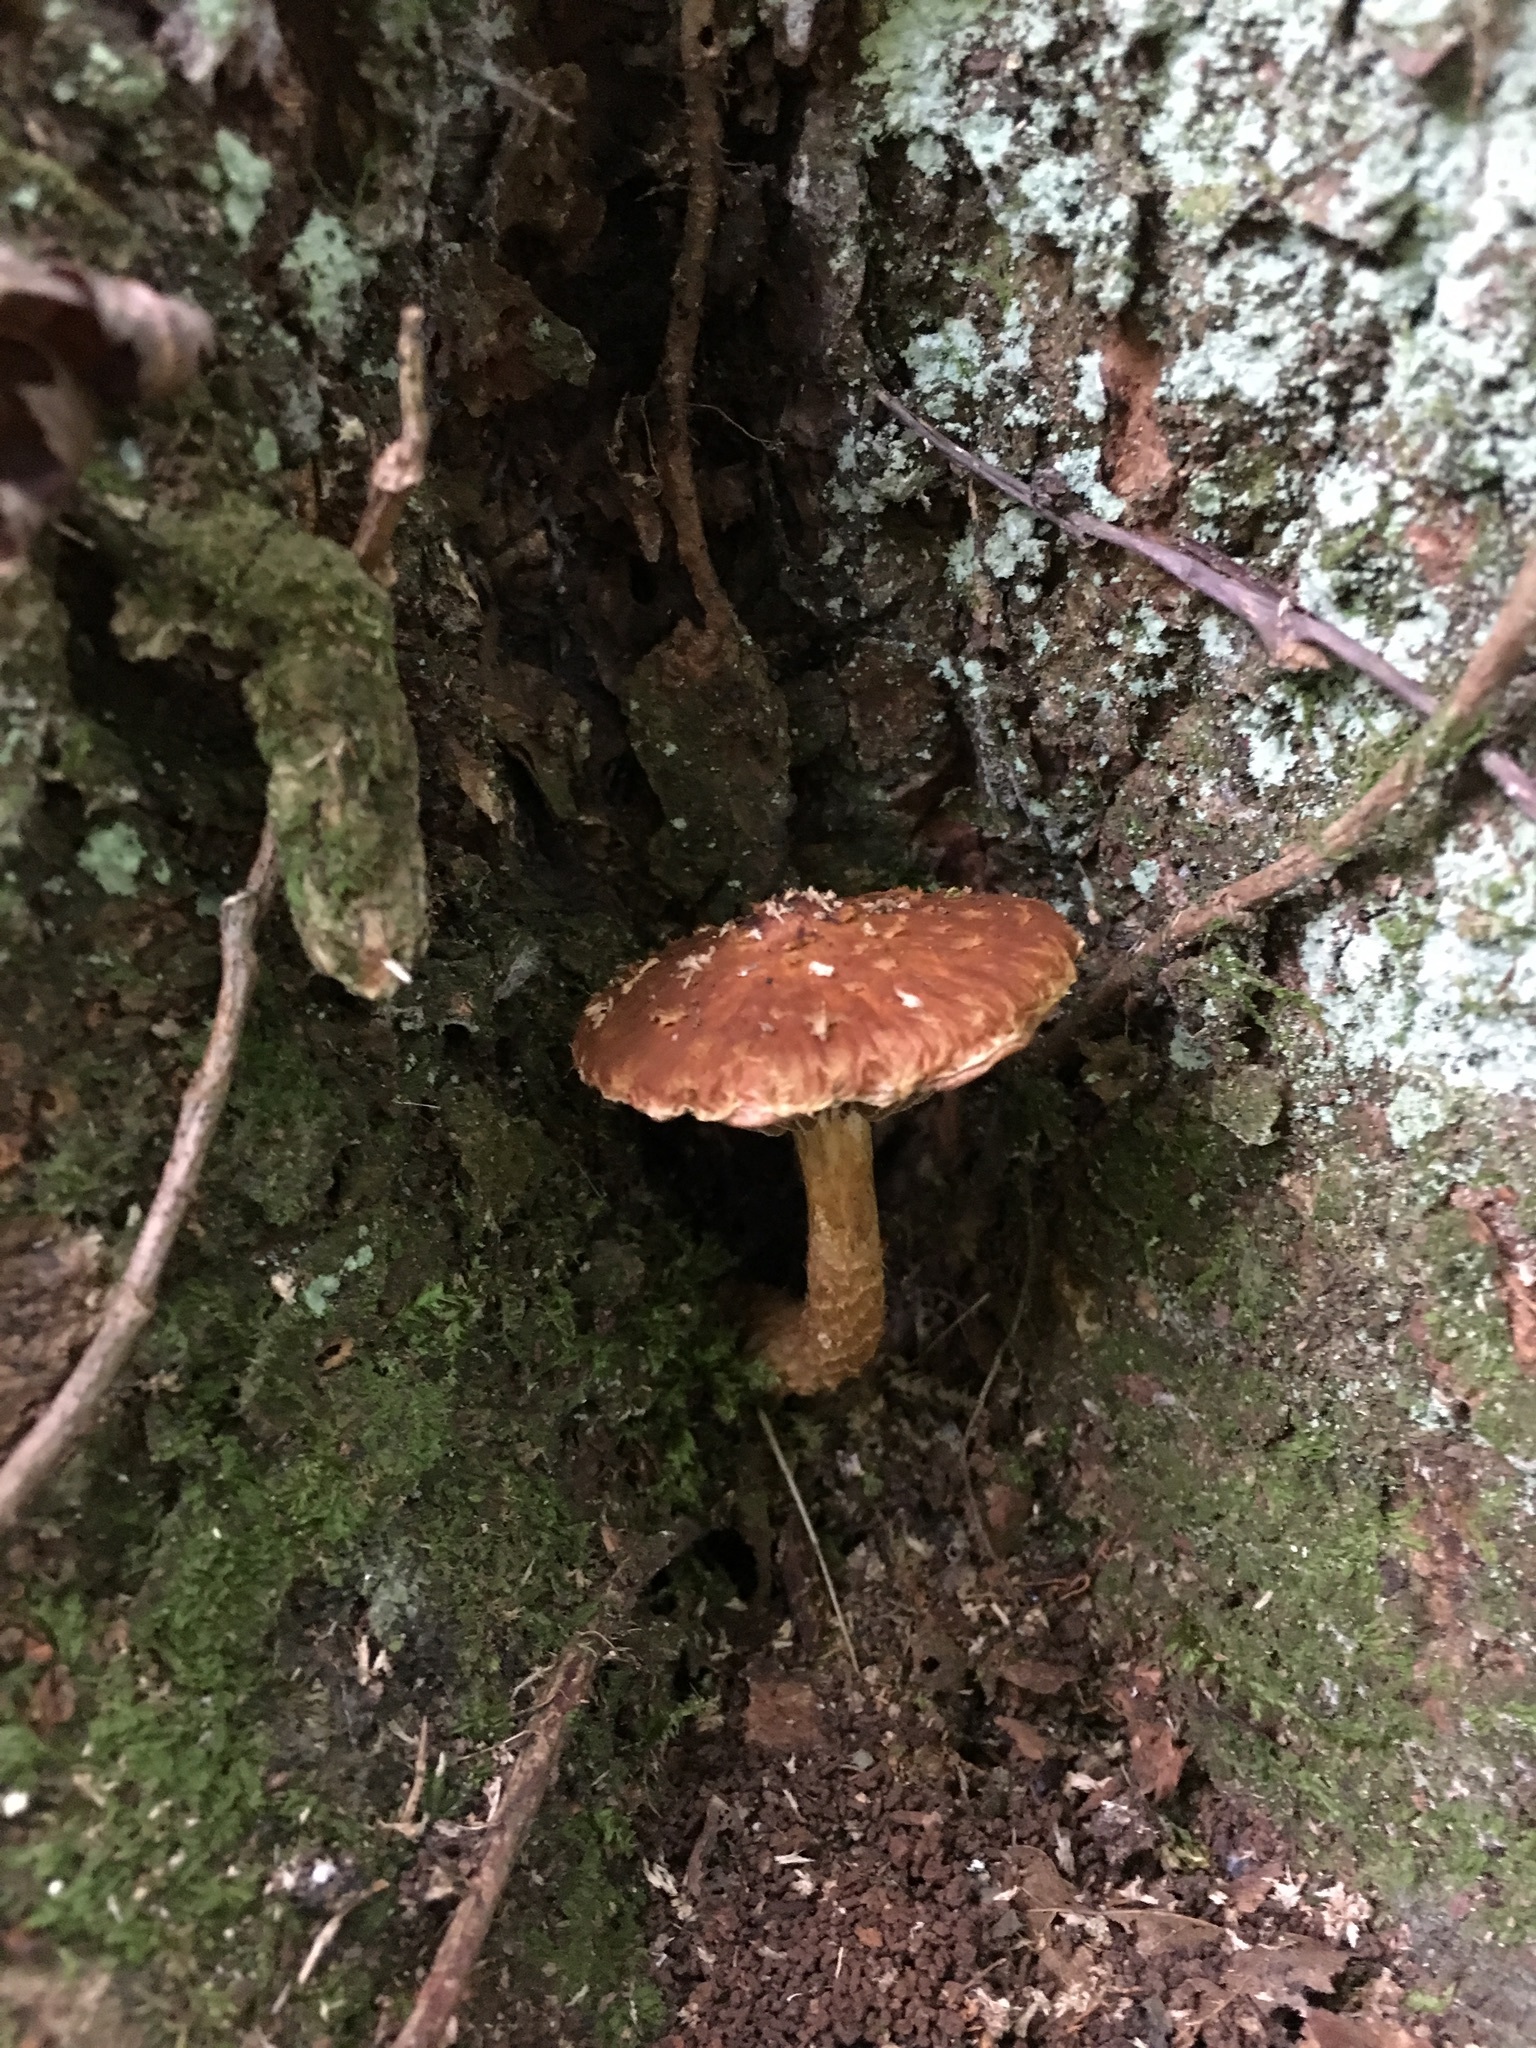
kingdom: Fungi
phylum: Basidiomycota
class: Agaricomycetes
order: Agaricales
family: Tubariaceae
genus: Hemistropharia
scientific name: Hemistropharia albocrenulata
